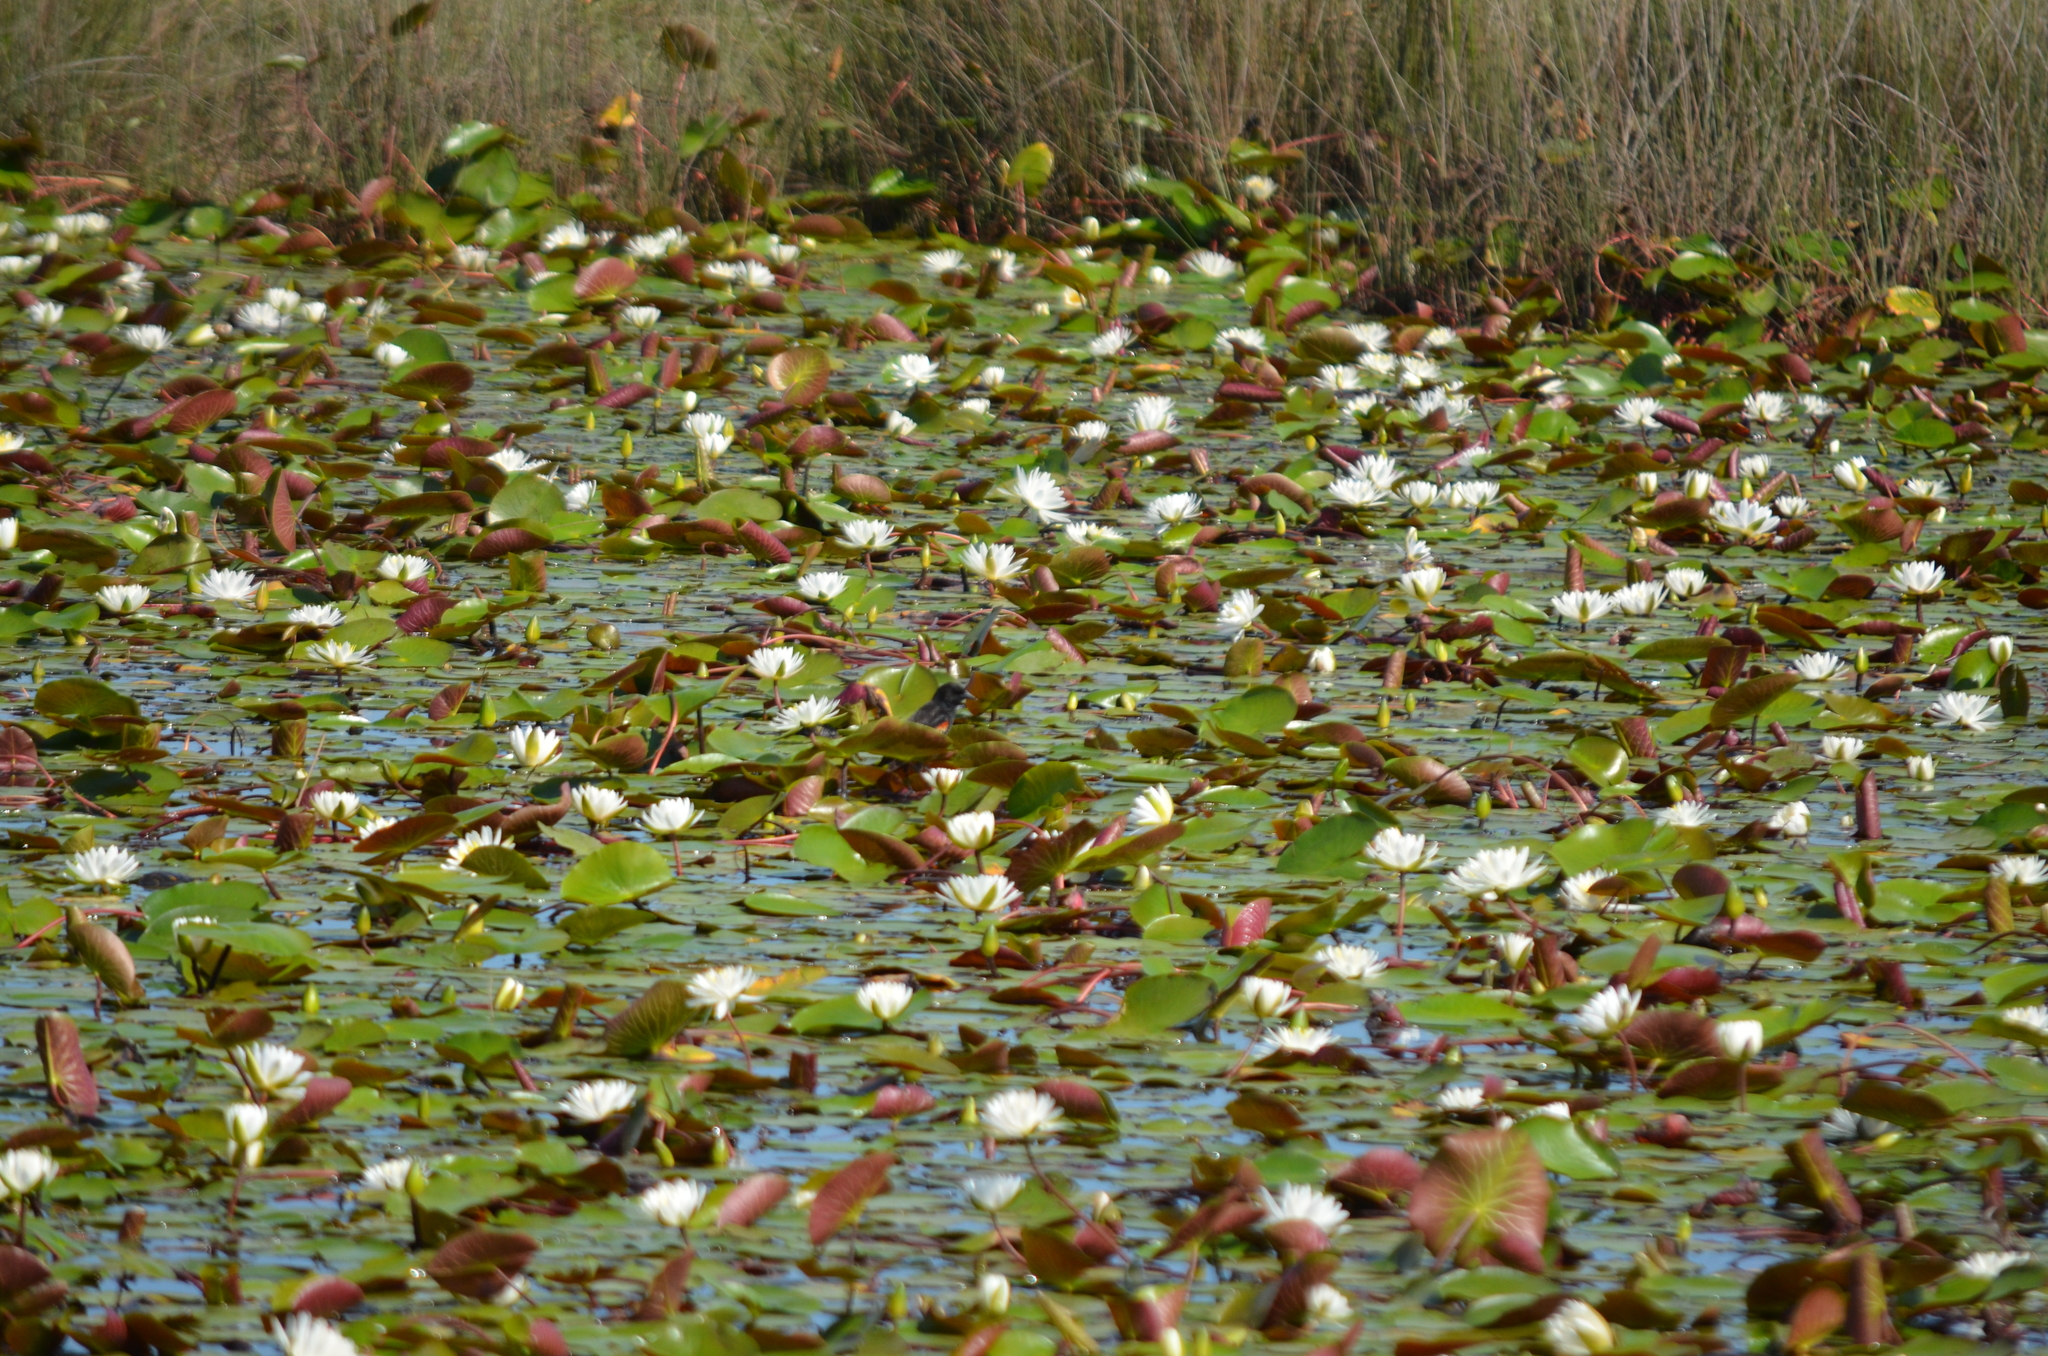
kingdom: Plantae
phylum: Tracheophyta
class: Magnoliopsida
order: Nymphaeales
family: Nymphaeaceae
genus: Nymphaea
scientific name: Nymphaea odorata
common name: Fragrant water-lily
